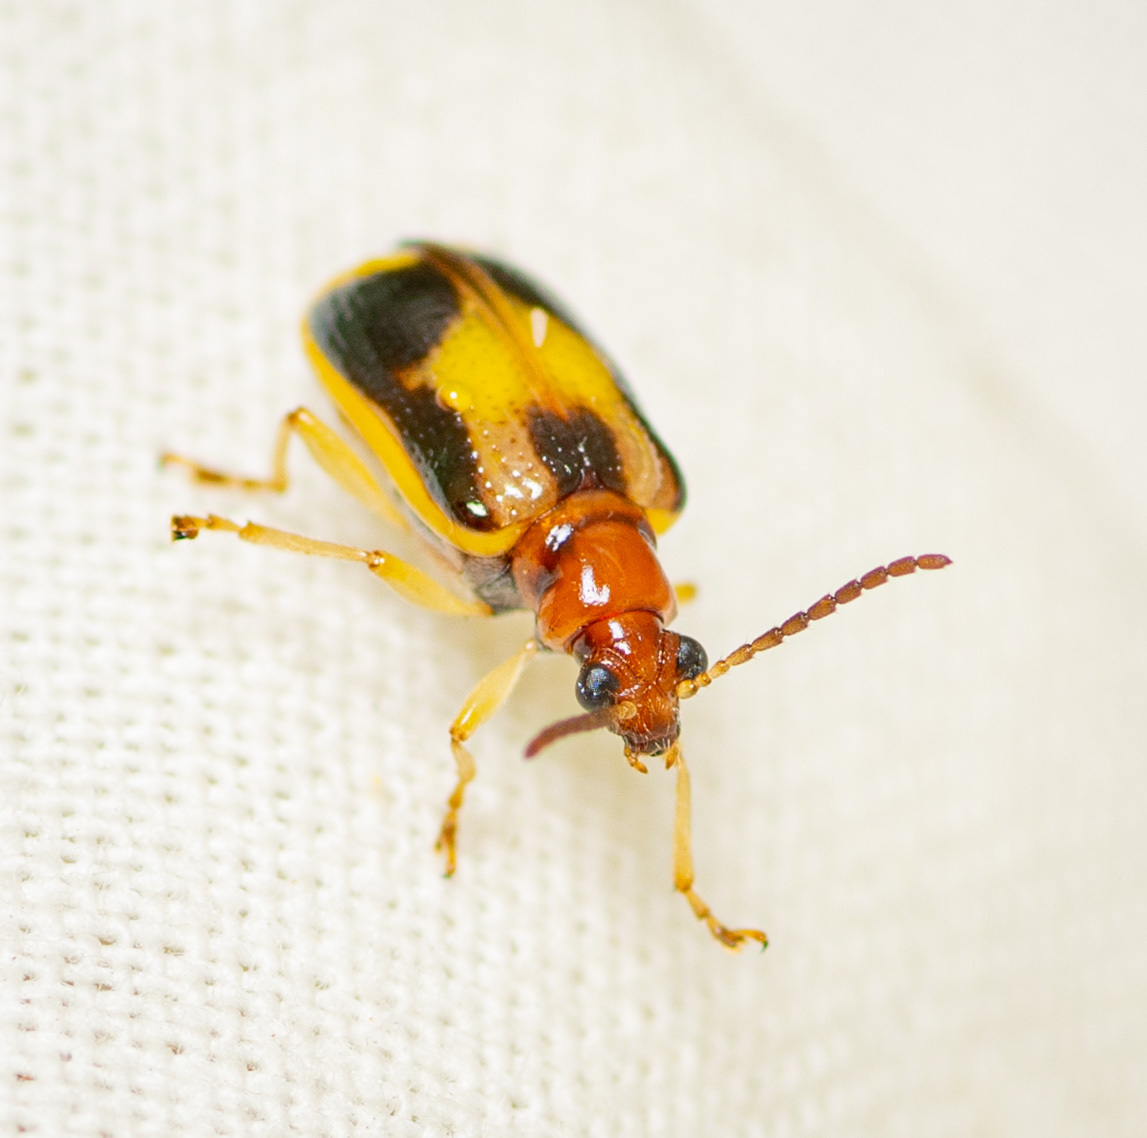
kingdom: Animalia
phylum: Arthropoda
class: Insecta
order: Coleoptera
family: Chrysomelidae
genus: Lema
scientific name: Lema opulenta
